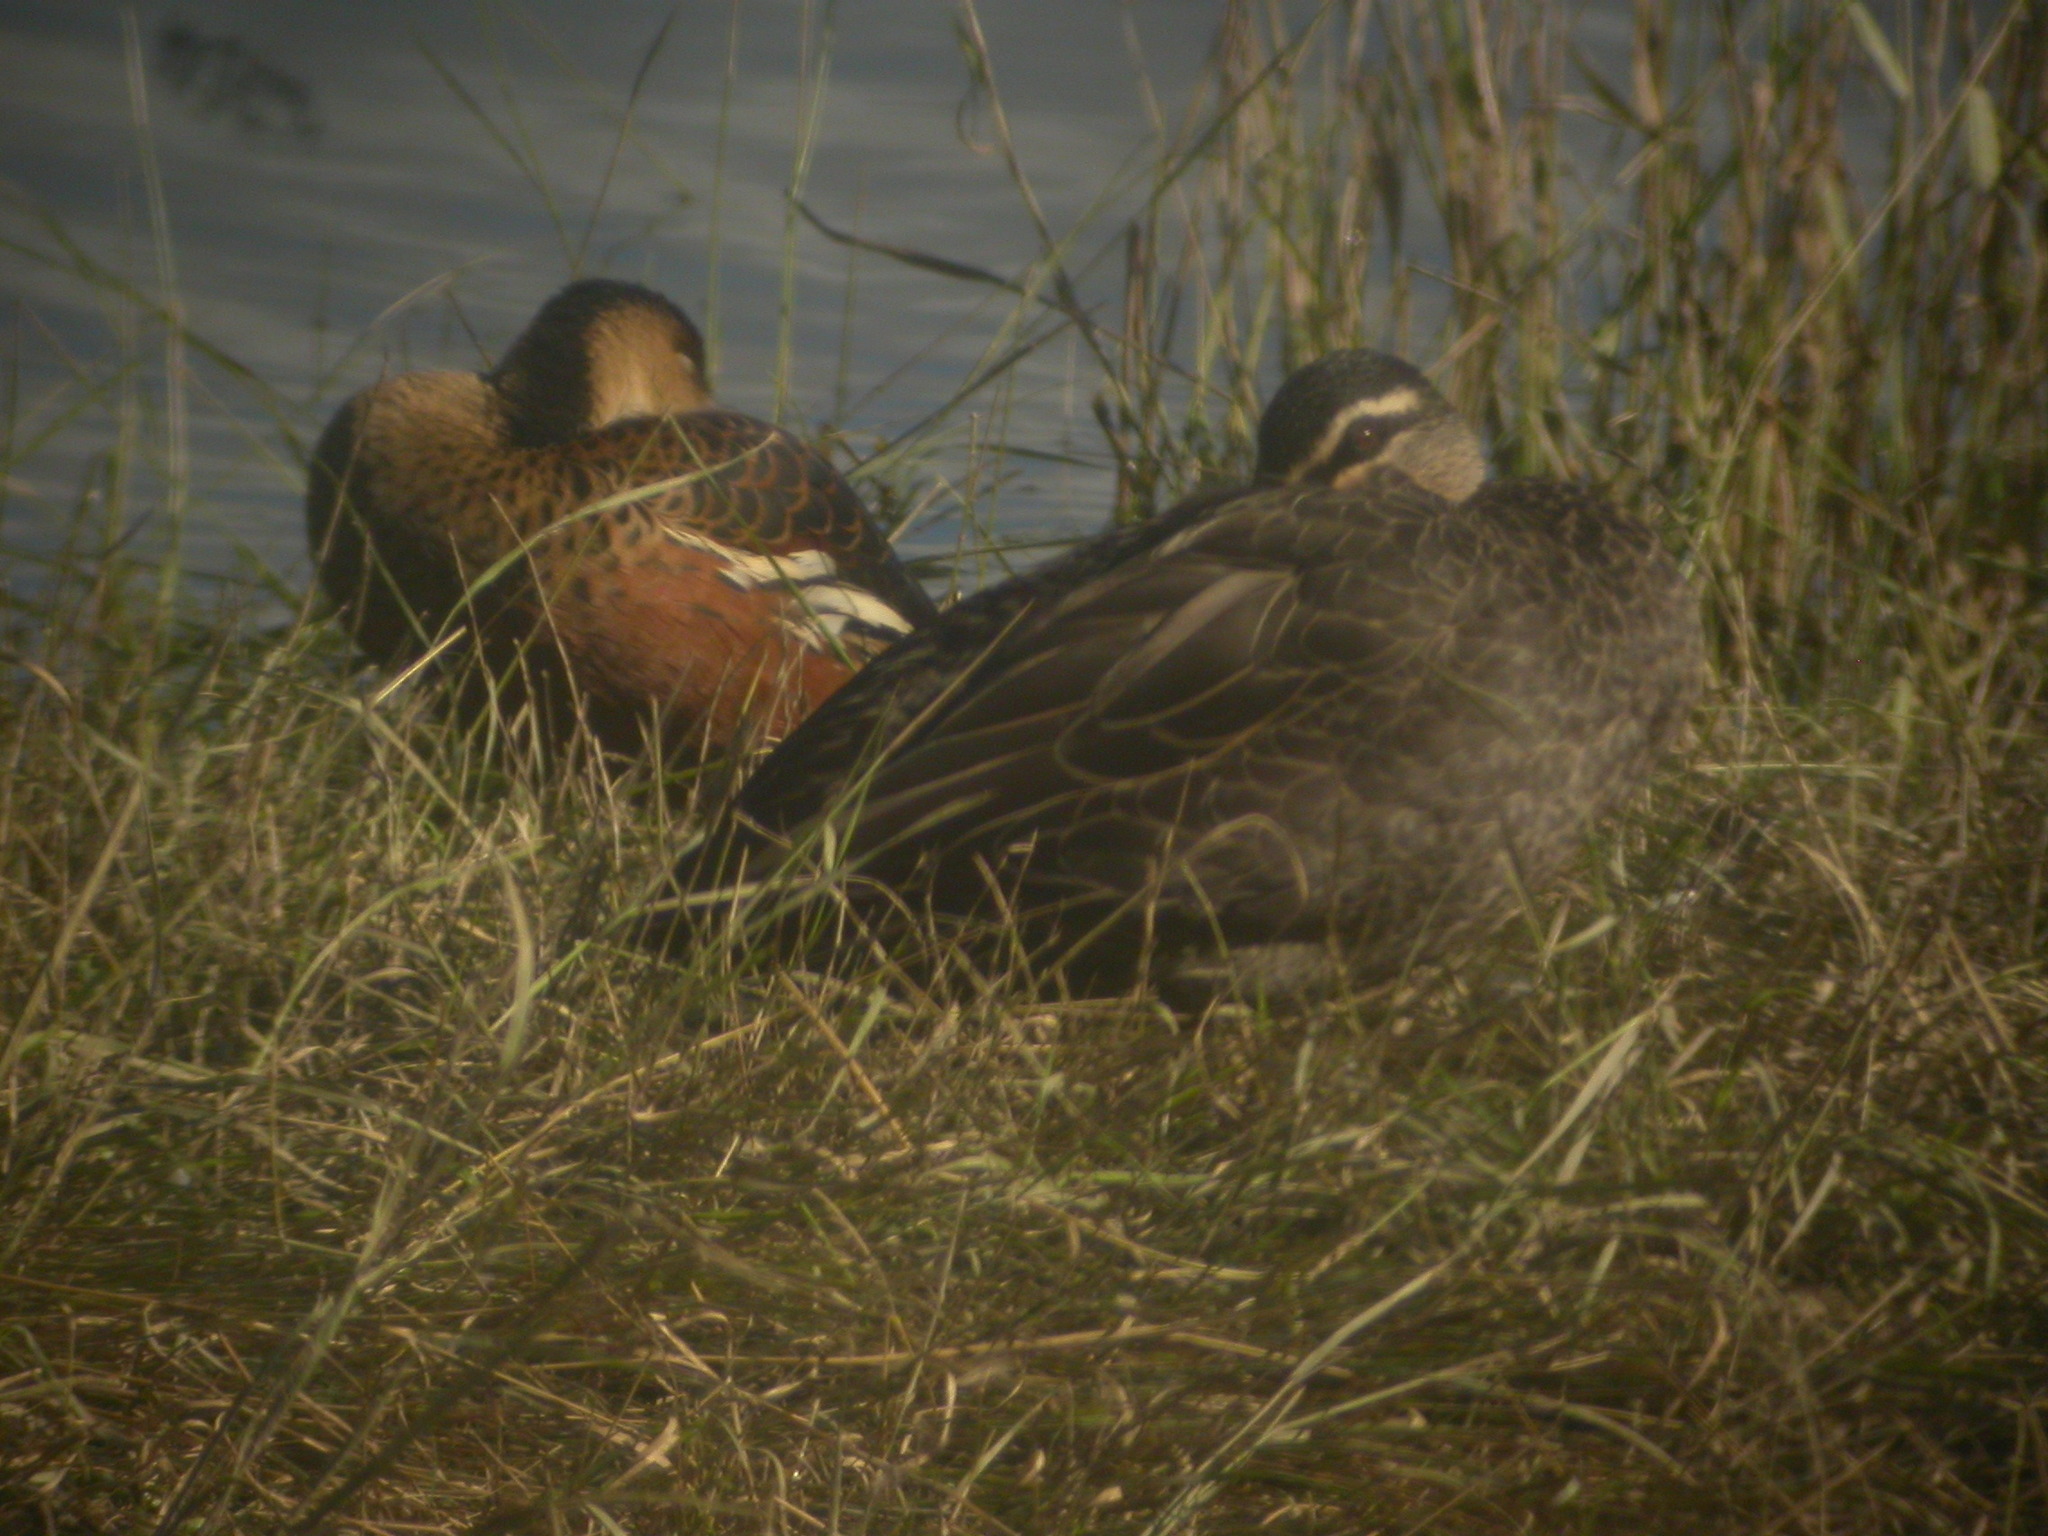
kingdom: Animalia
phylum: Chordata
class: Aves
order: Anseriformes
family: Anatidae
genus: Anas
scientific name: Anas superciliosa
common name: Pacific black duck
